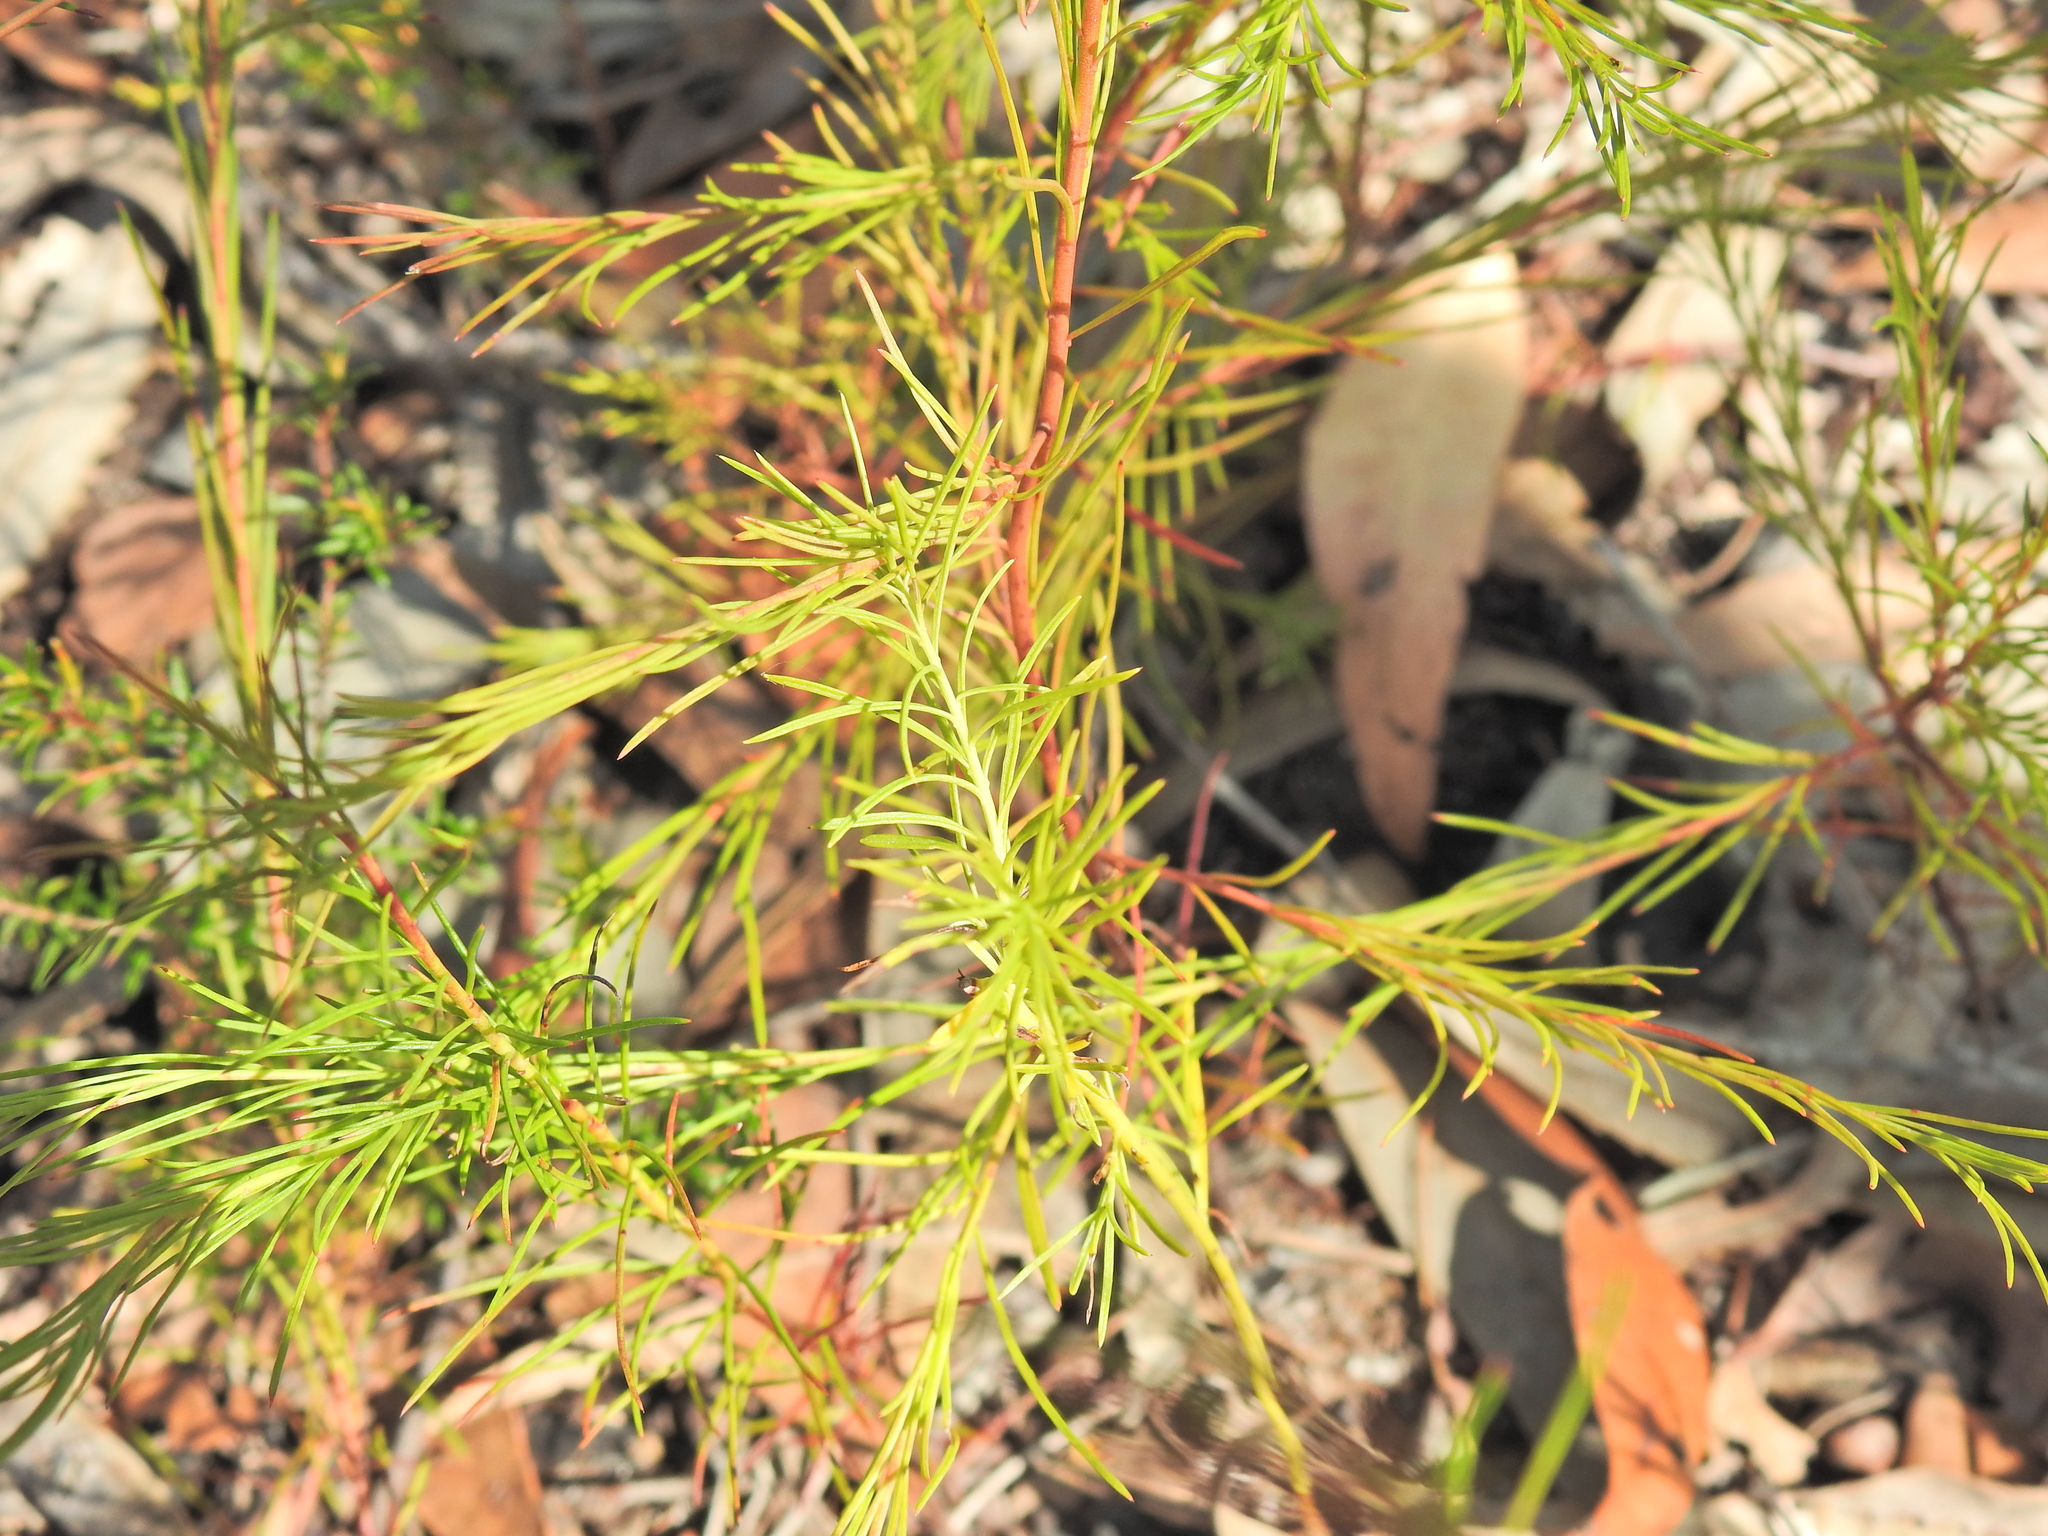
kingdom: Plantae
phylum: Tracheophyta
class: Magnoliopsida
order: Apiales
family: Apiaceae
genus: Platysace
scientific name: Platysace linearifolia
